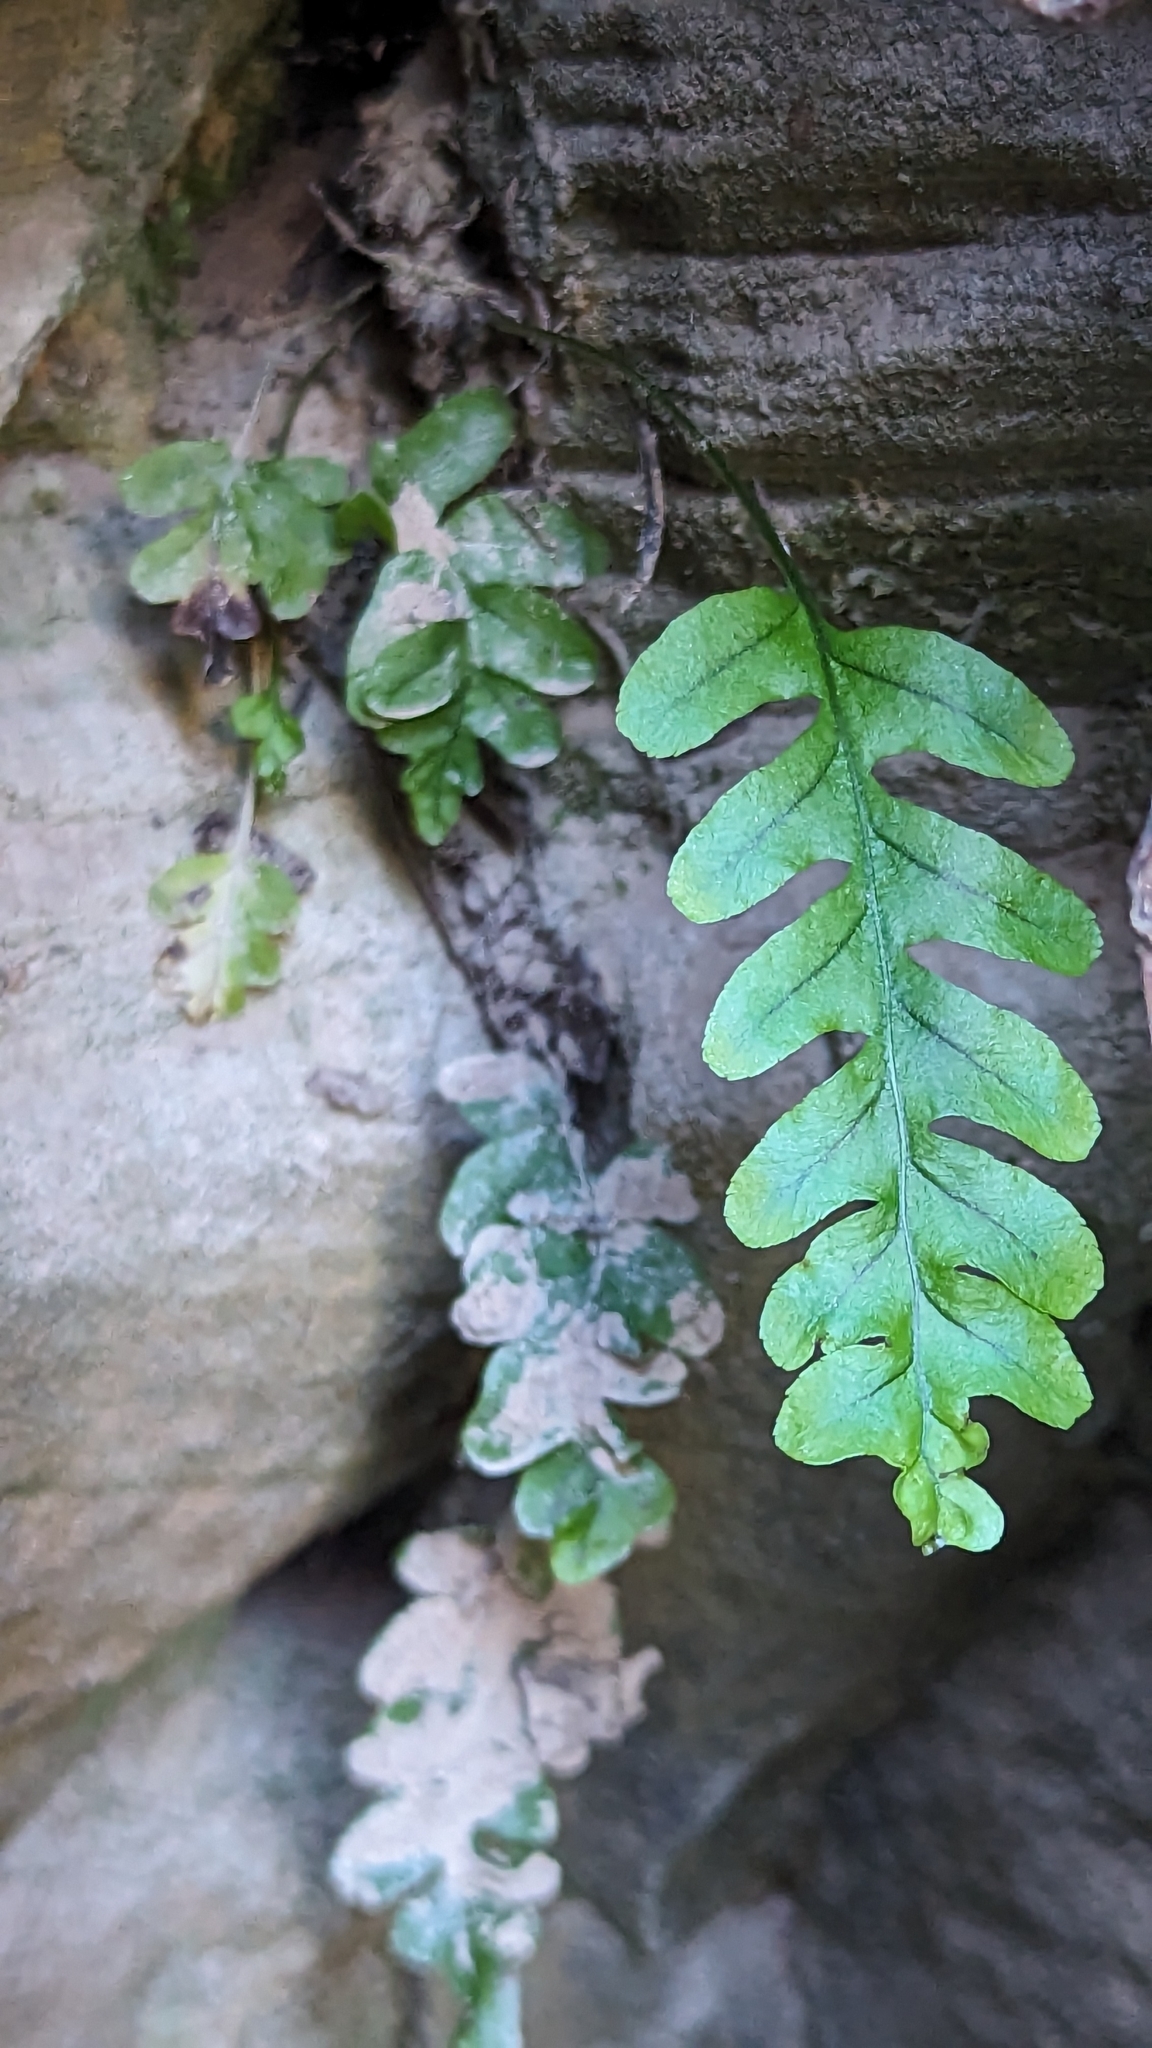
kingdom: Plantae
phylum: Tracheophyta
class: Polypodiopsida
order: Polypodiales
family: Polypodiaceae
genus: Polypodium
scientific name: Polypodium hesperium
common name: Western polypody
